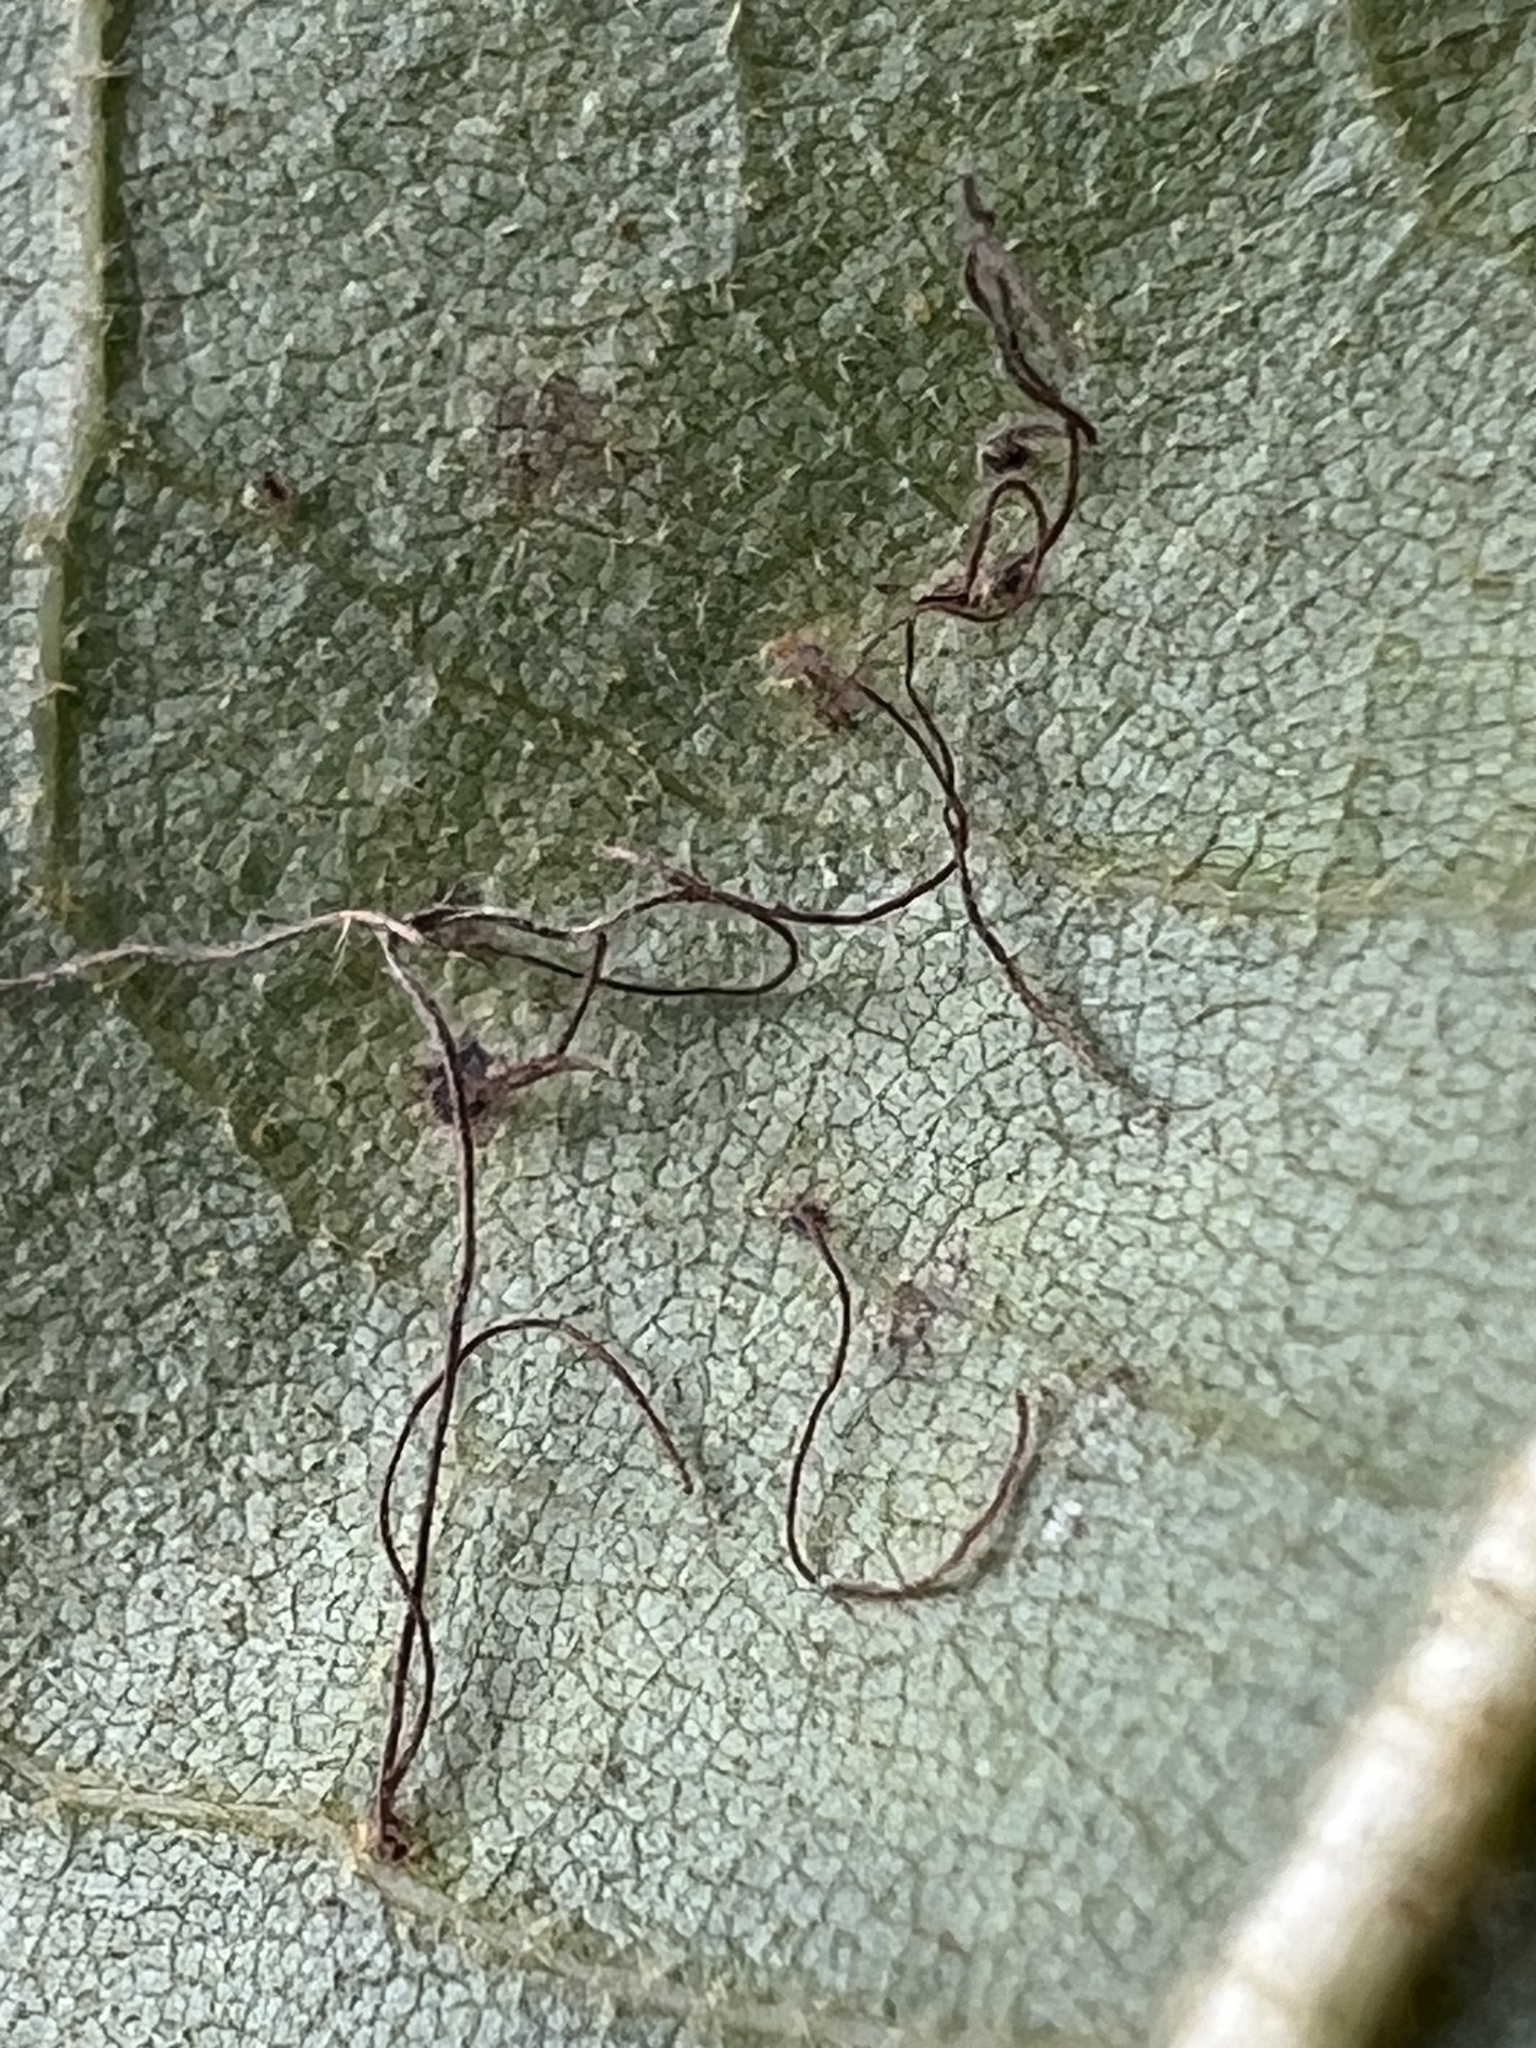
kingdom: Fungi
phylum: Basidiomycota
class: Pucciniomycetes
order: Pucciniales
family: Cronartiaceae
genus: Cronartium
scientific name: Cronartium quercuum
